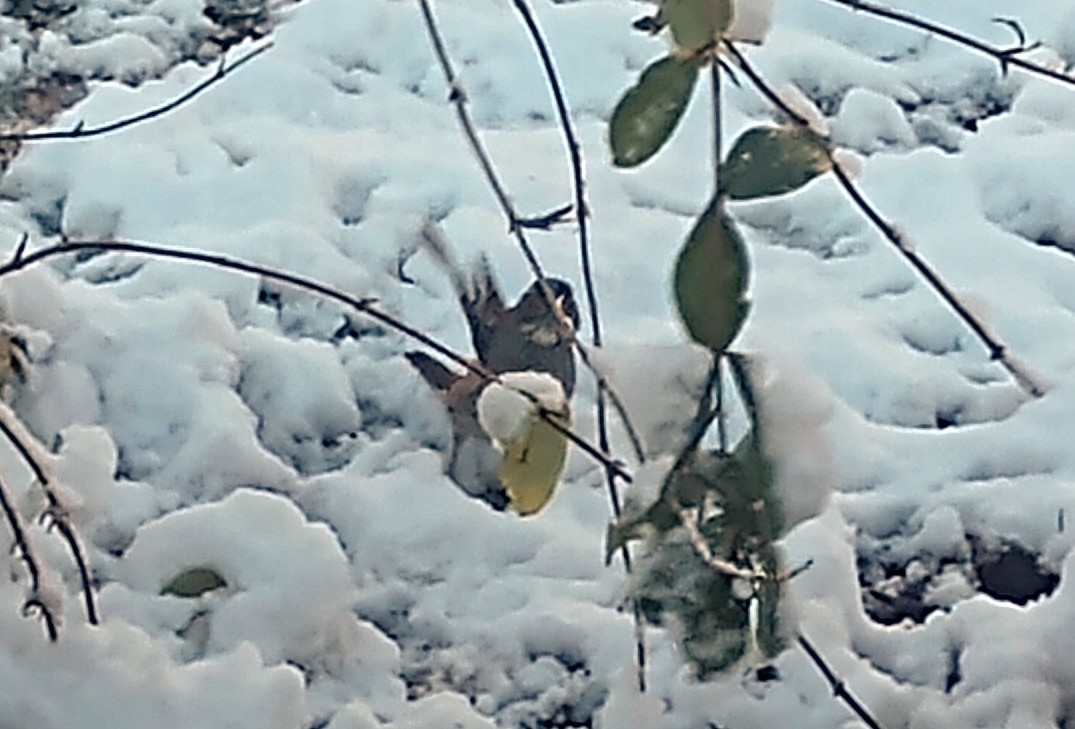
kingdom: Animalia
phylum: Chordata
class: Aves
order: Passeriformes
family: Passerellidae
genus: Zonotrichia
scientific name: Zonotrichia albicollis
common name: White-throated sparrow
